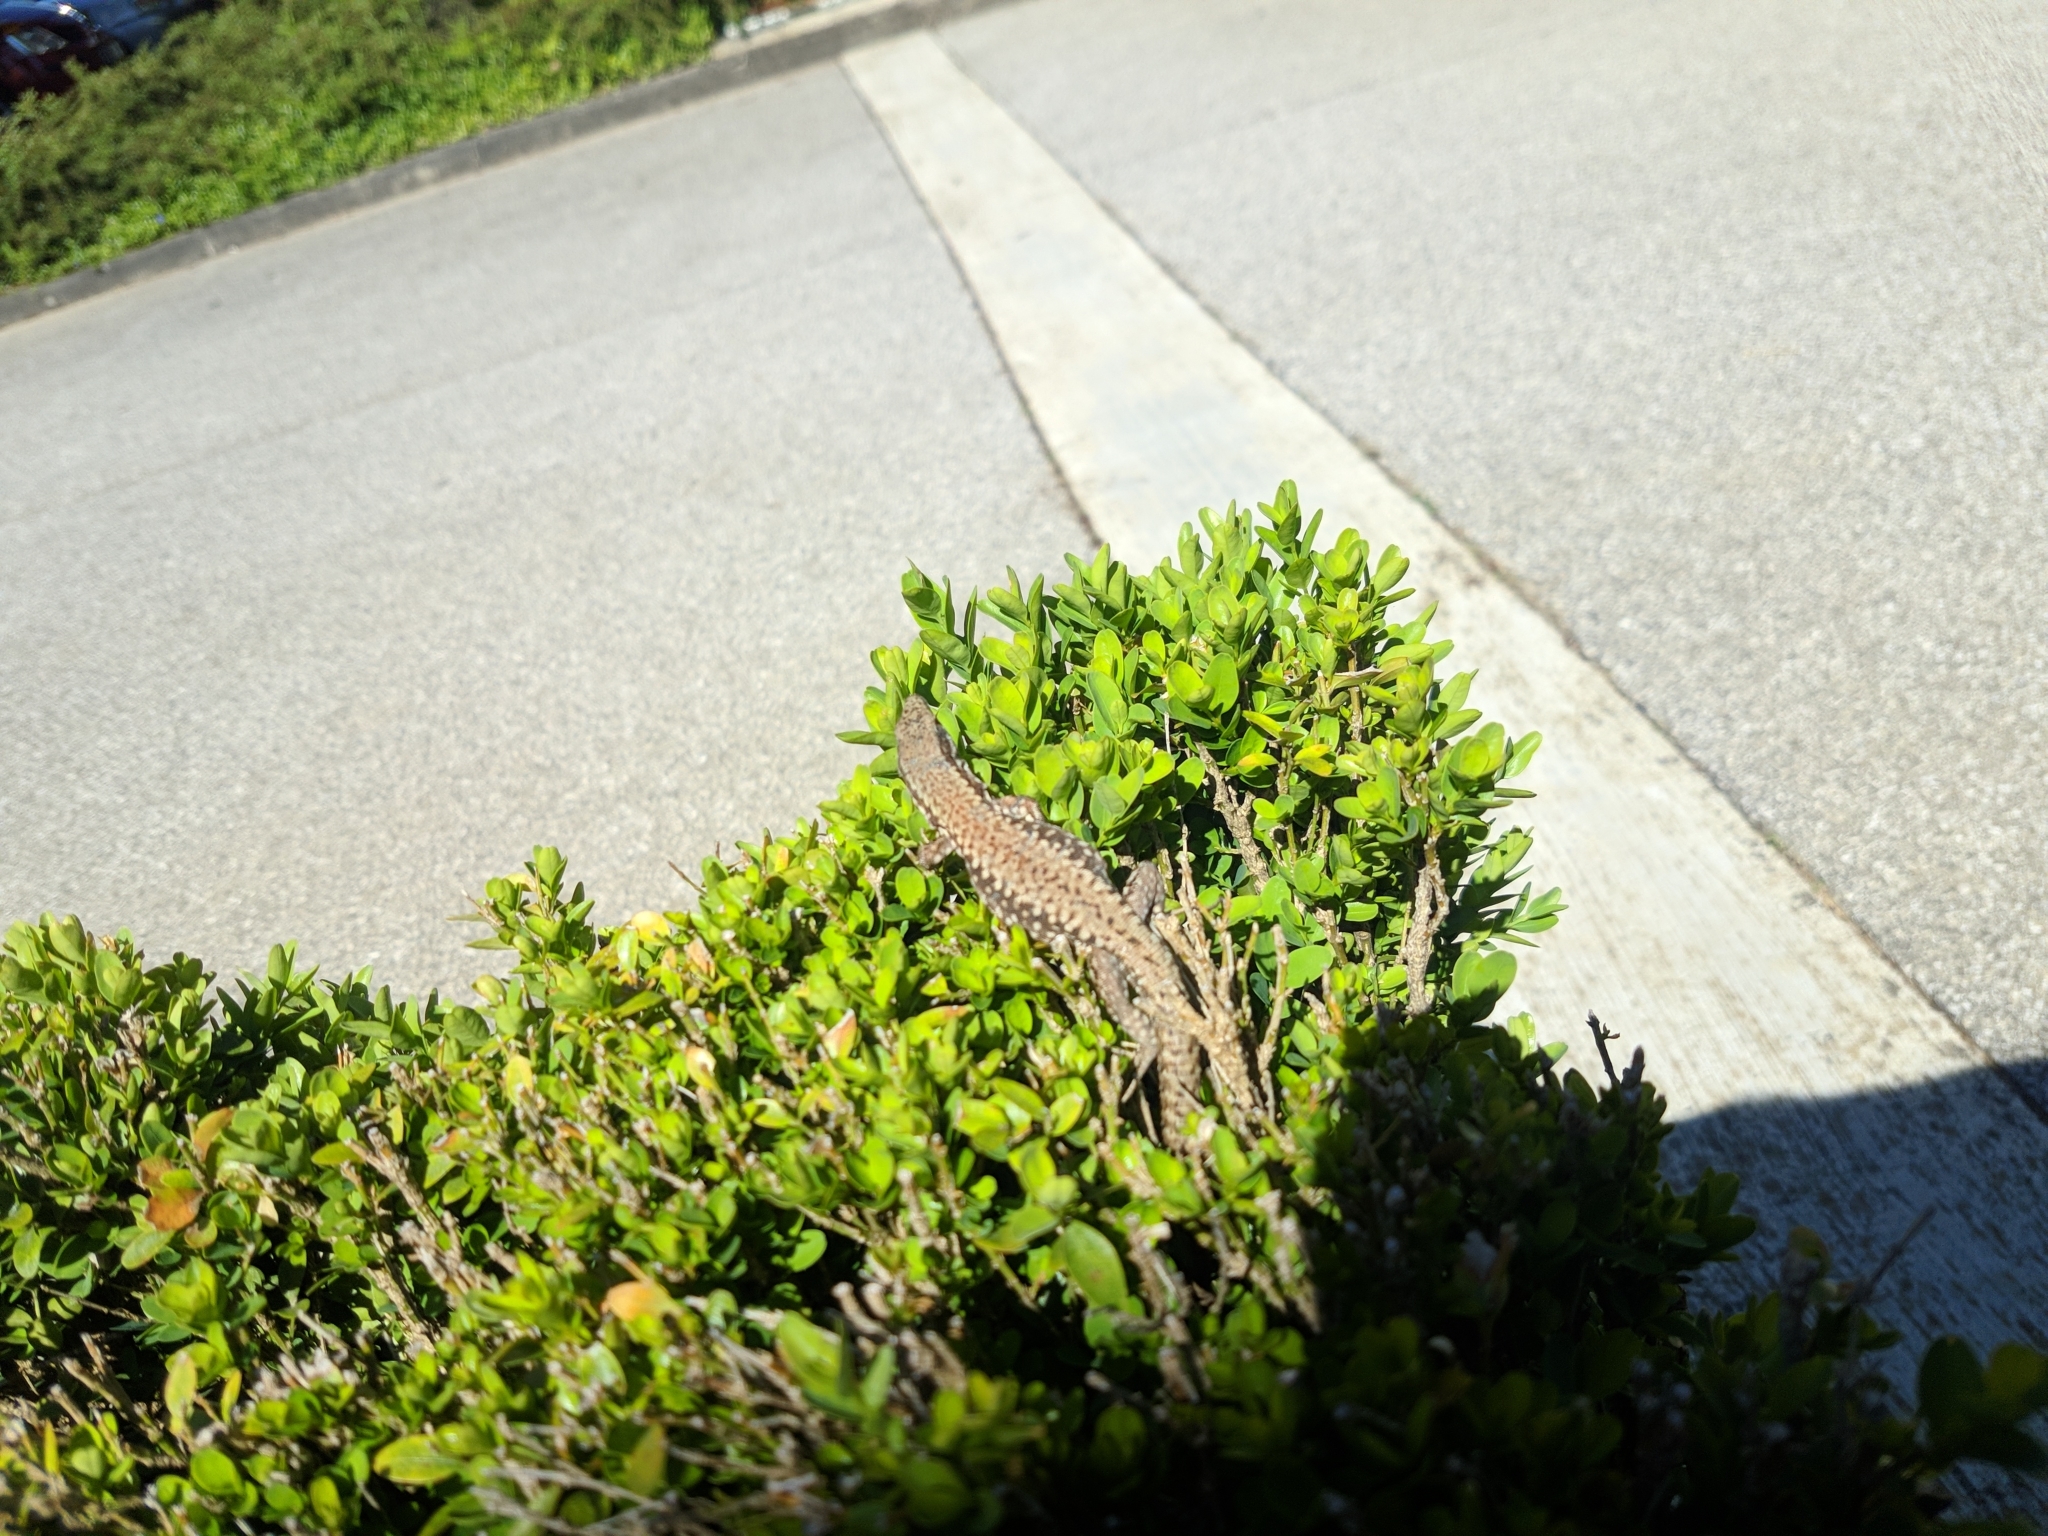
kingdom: Animalia
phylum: Chordata
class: Squamata
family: Lacertidae
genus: Podarcis
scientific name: Podarcis muralis
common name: Common wall lizard
